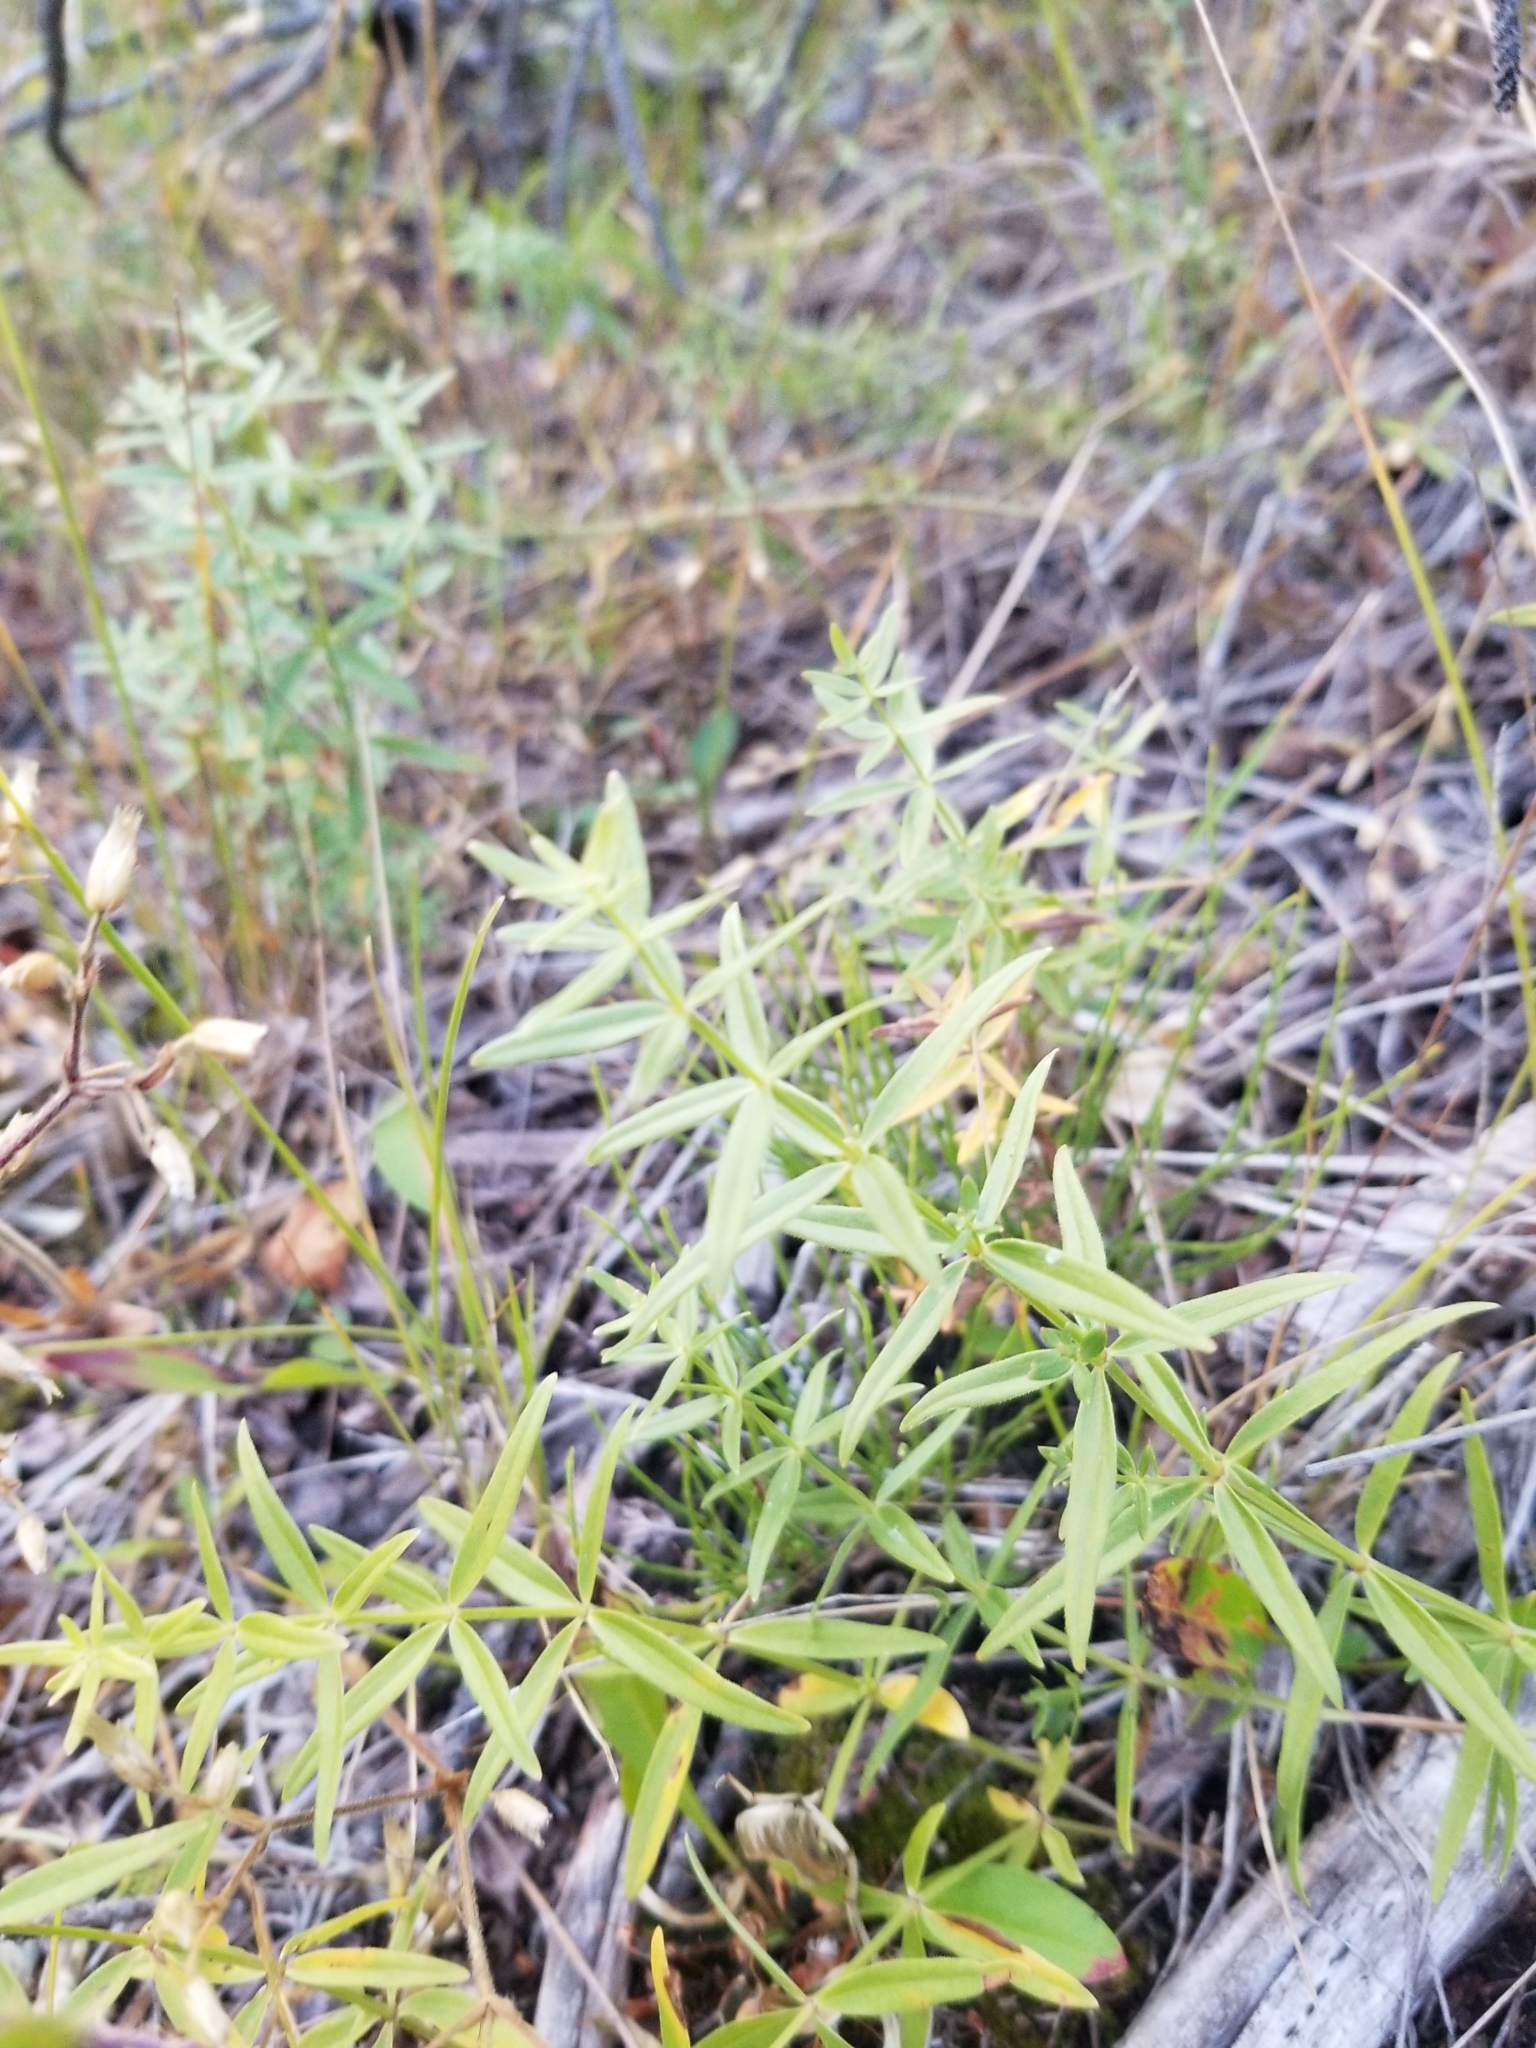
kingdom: Plantae
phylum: Tracheophyta
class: Magnoliopsida
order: Gentianales
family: Rubiaceae
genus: Galium
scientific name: Galium boreale
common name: Northern bedstraw
